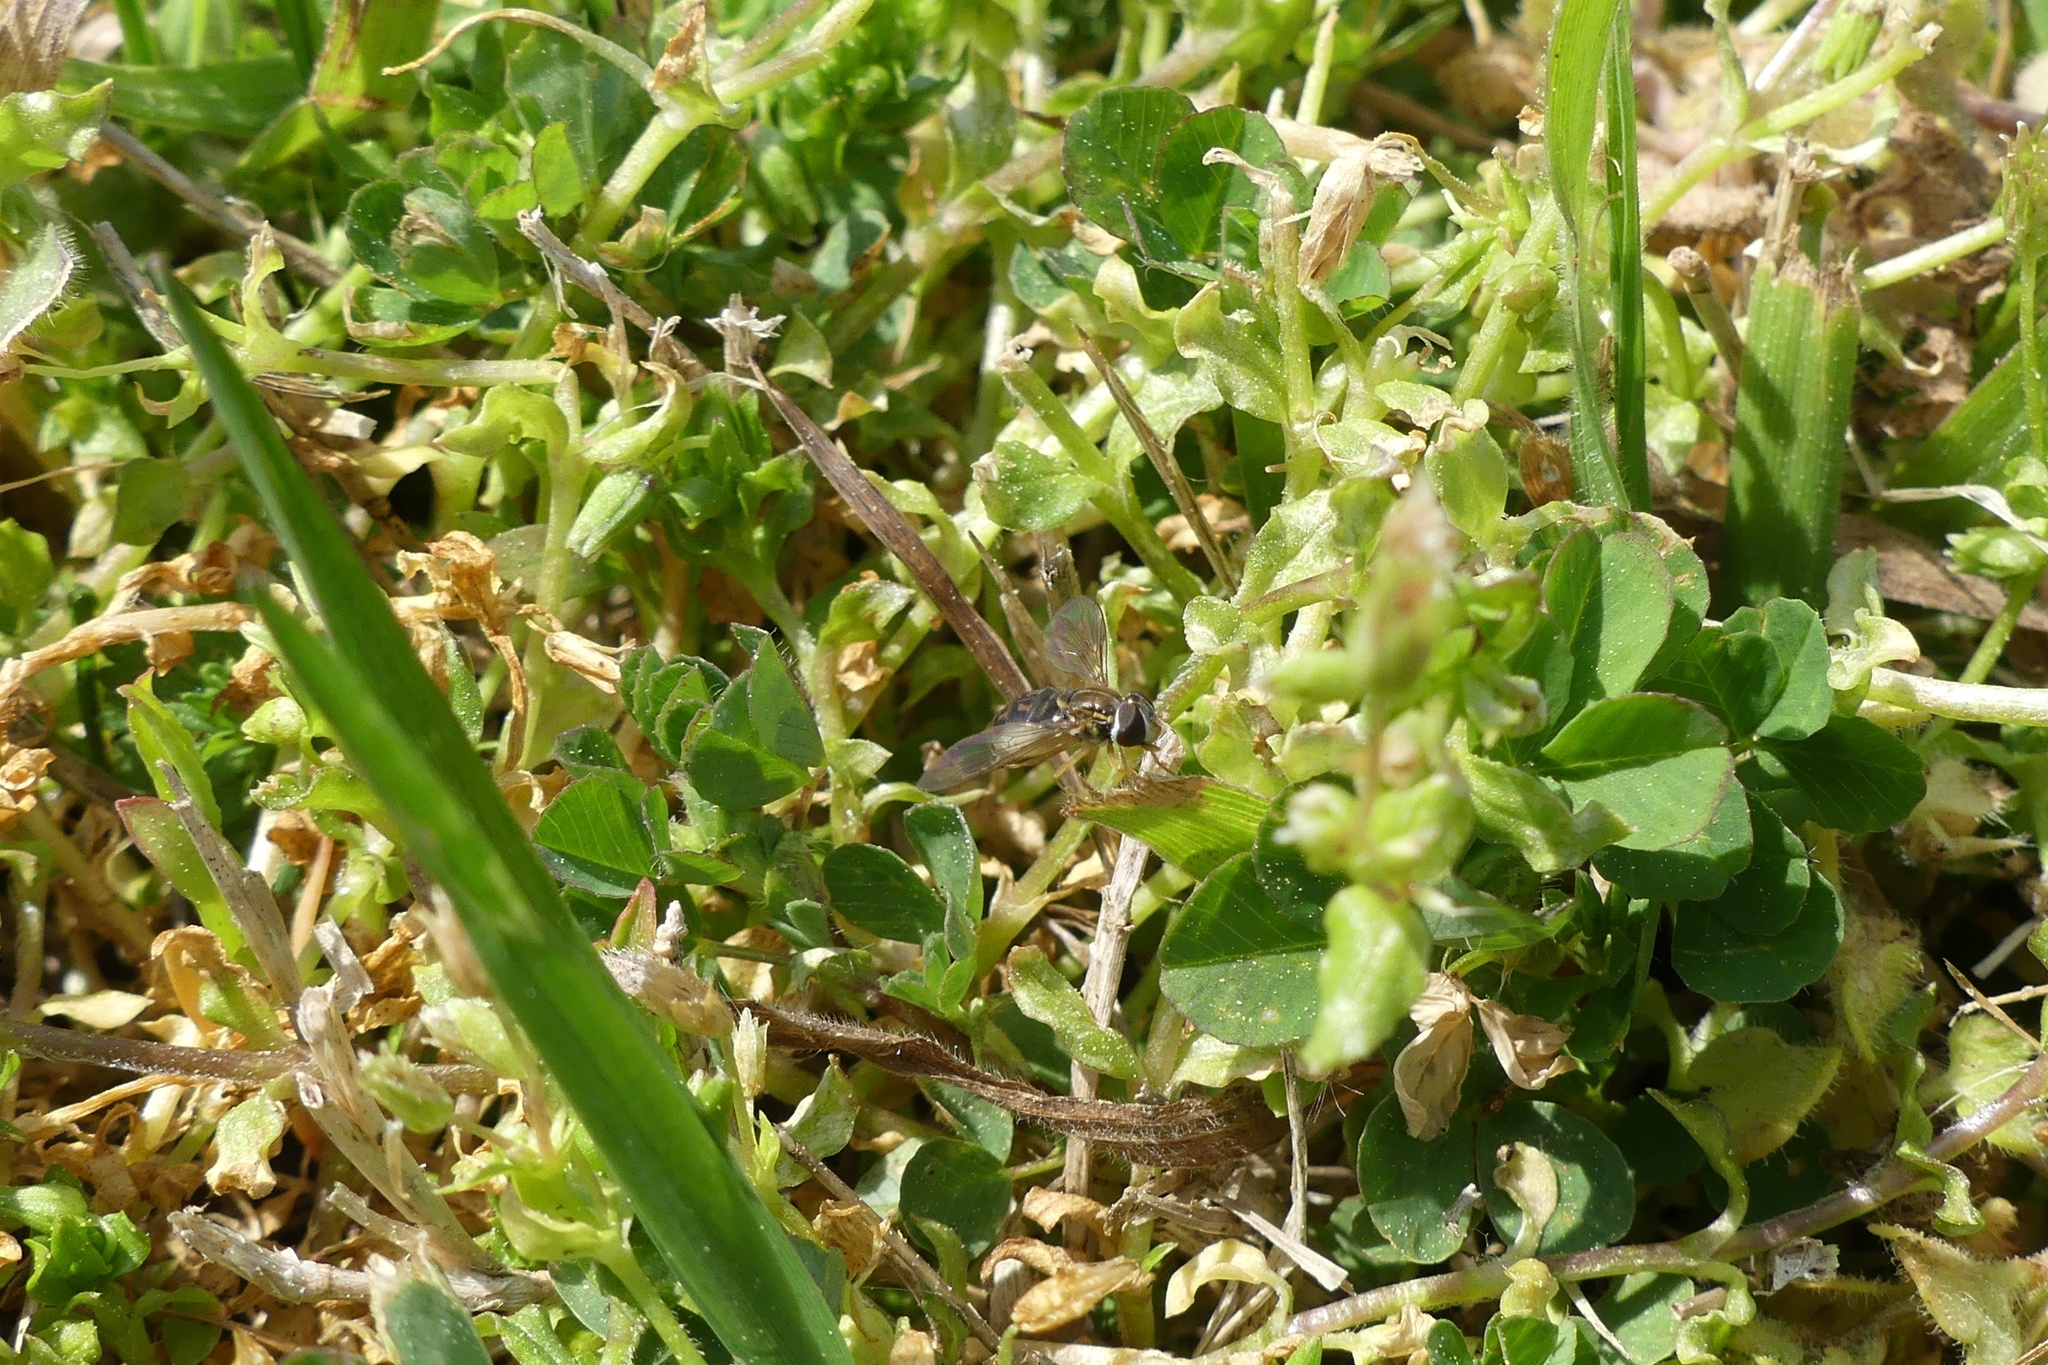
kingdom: Animalia
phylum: Arthropoda
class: Insecta
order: Diptera
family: Syrphidae
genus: Toxomerus
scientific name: Toxomerus marginatus
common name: Syrphid fly
